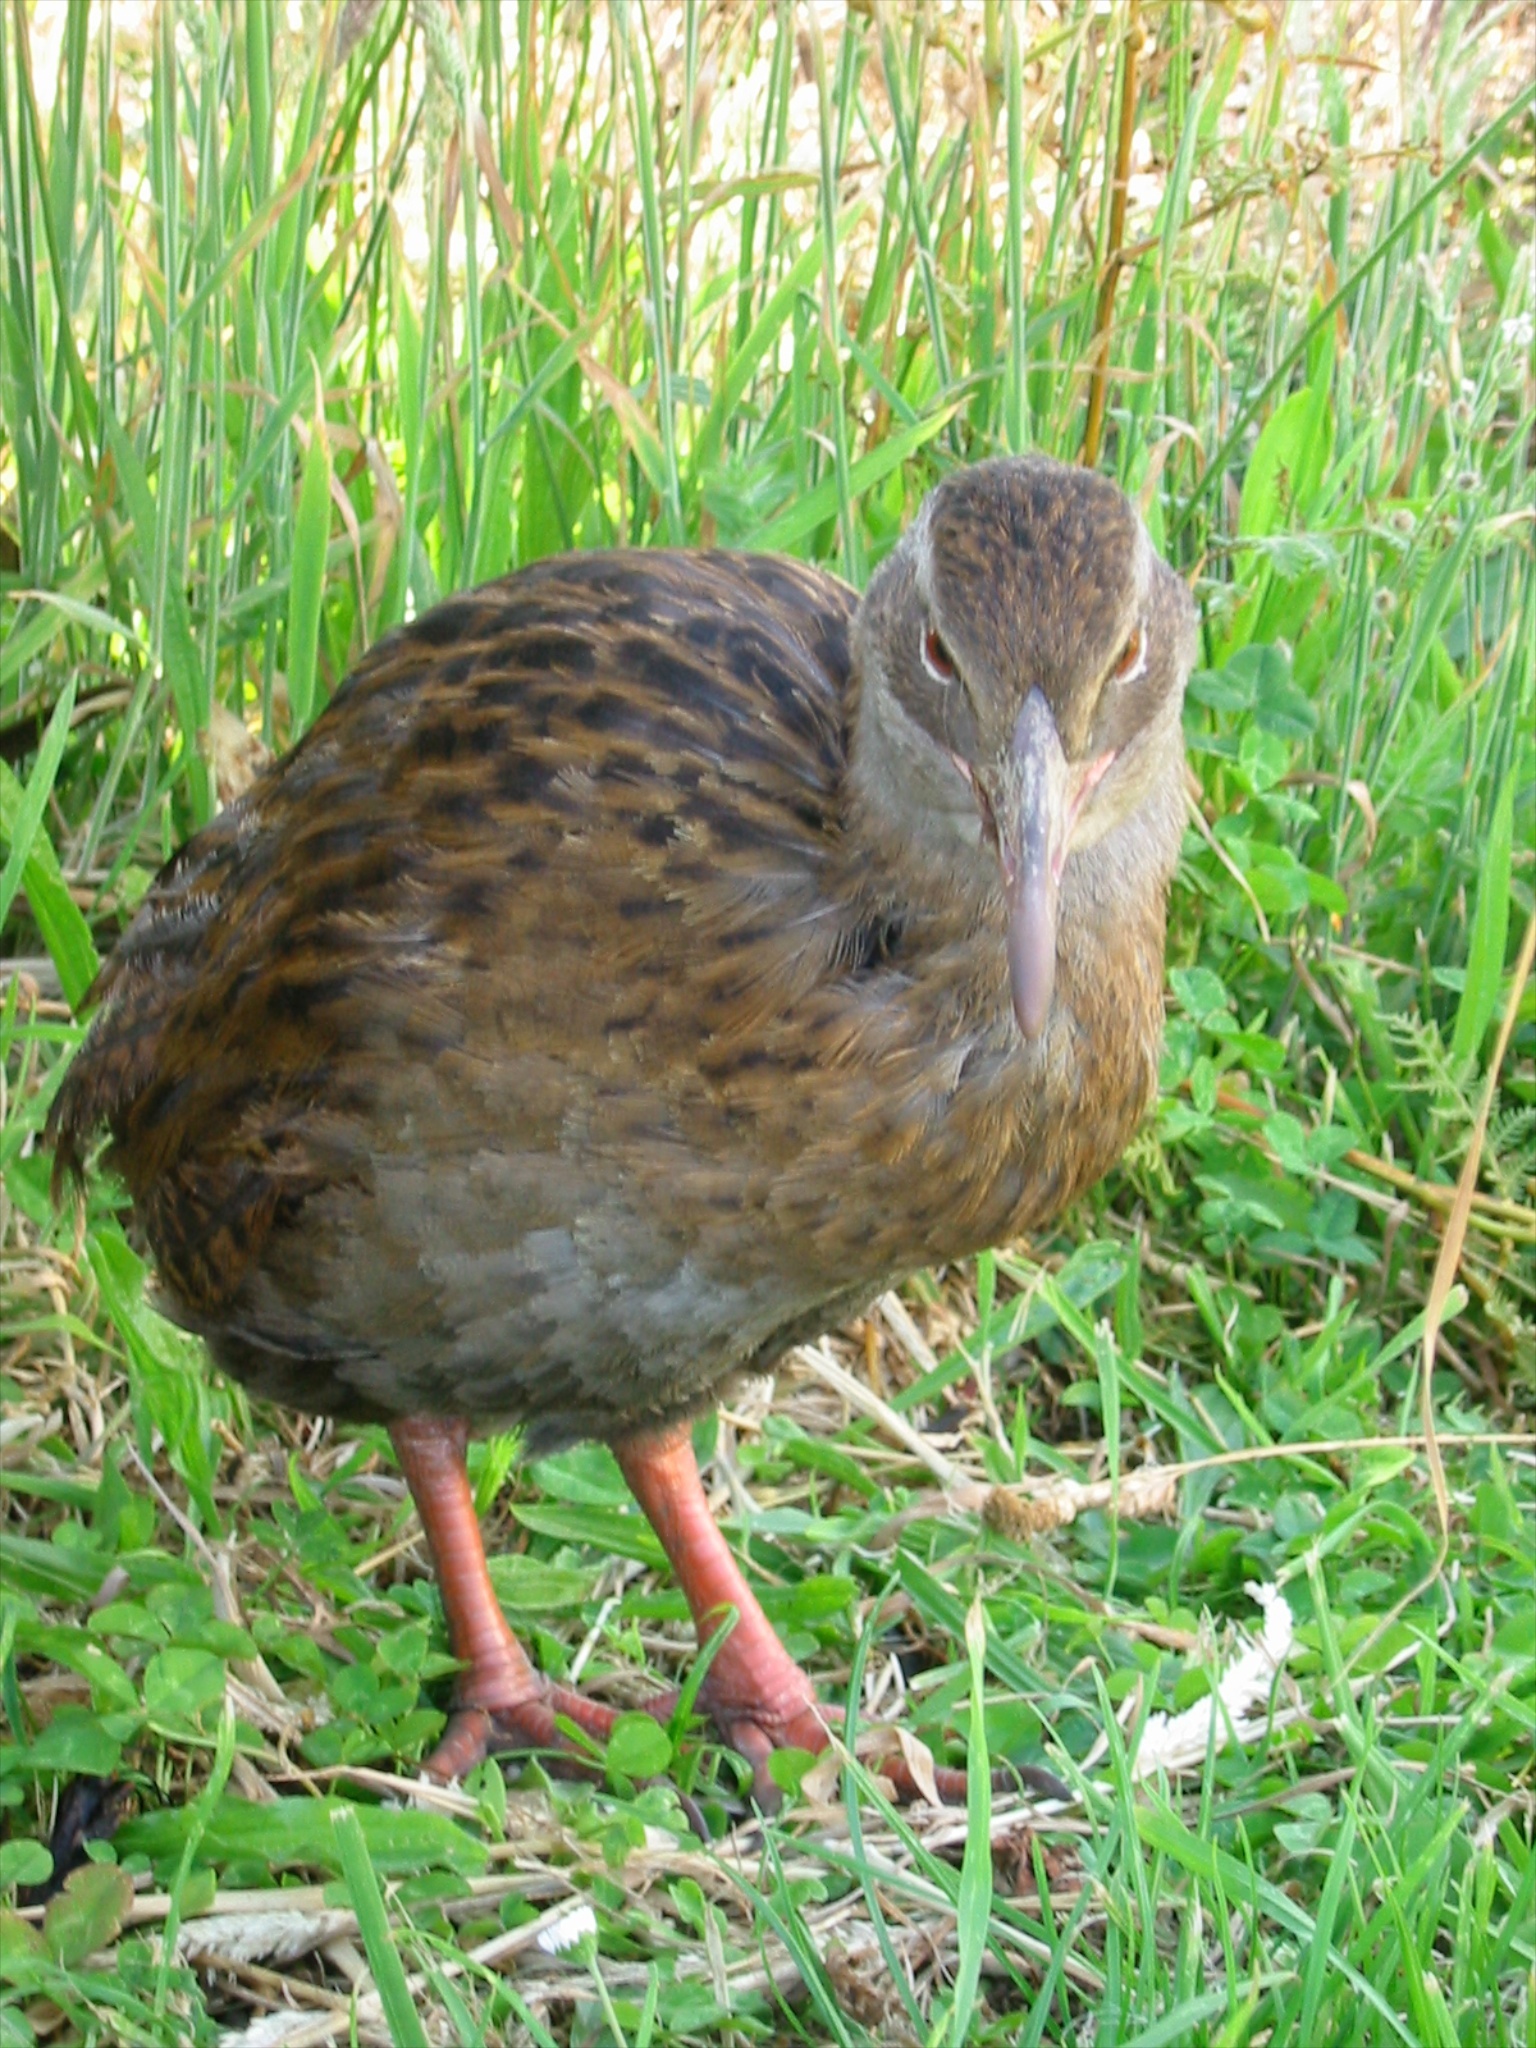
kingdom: Animalia
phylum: Chordata
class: Aves
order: Gruiformes
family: Rallidae
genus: Gallirallus
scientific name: Gallirallus australis
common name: Weka
